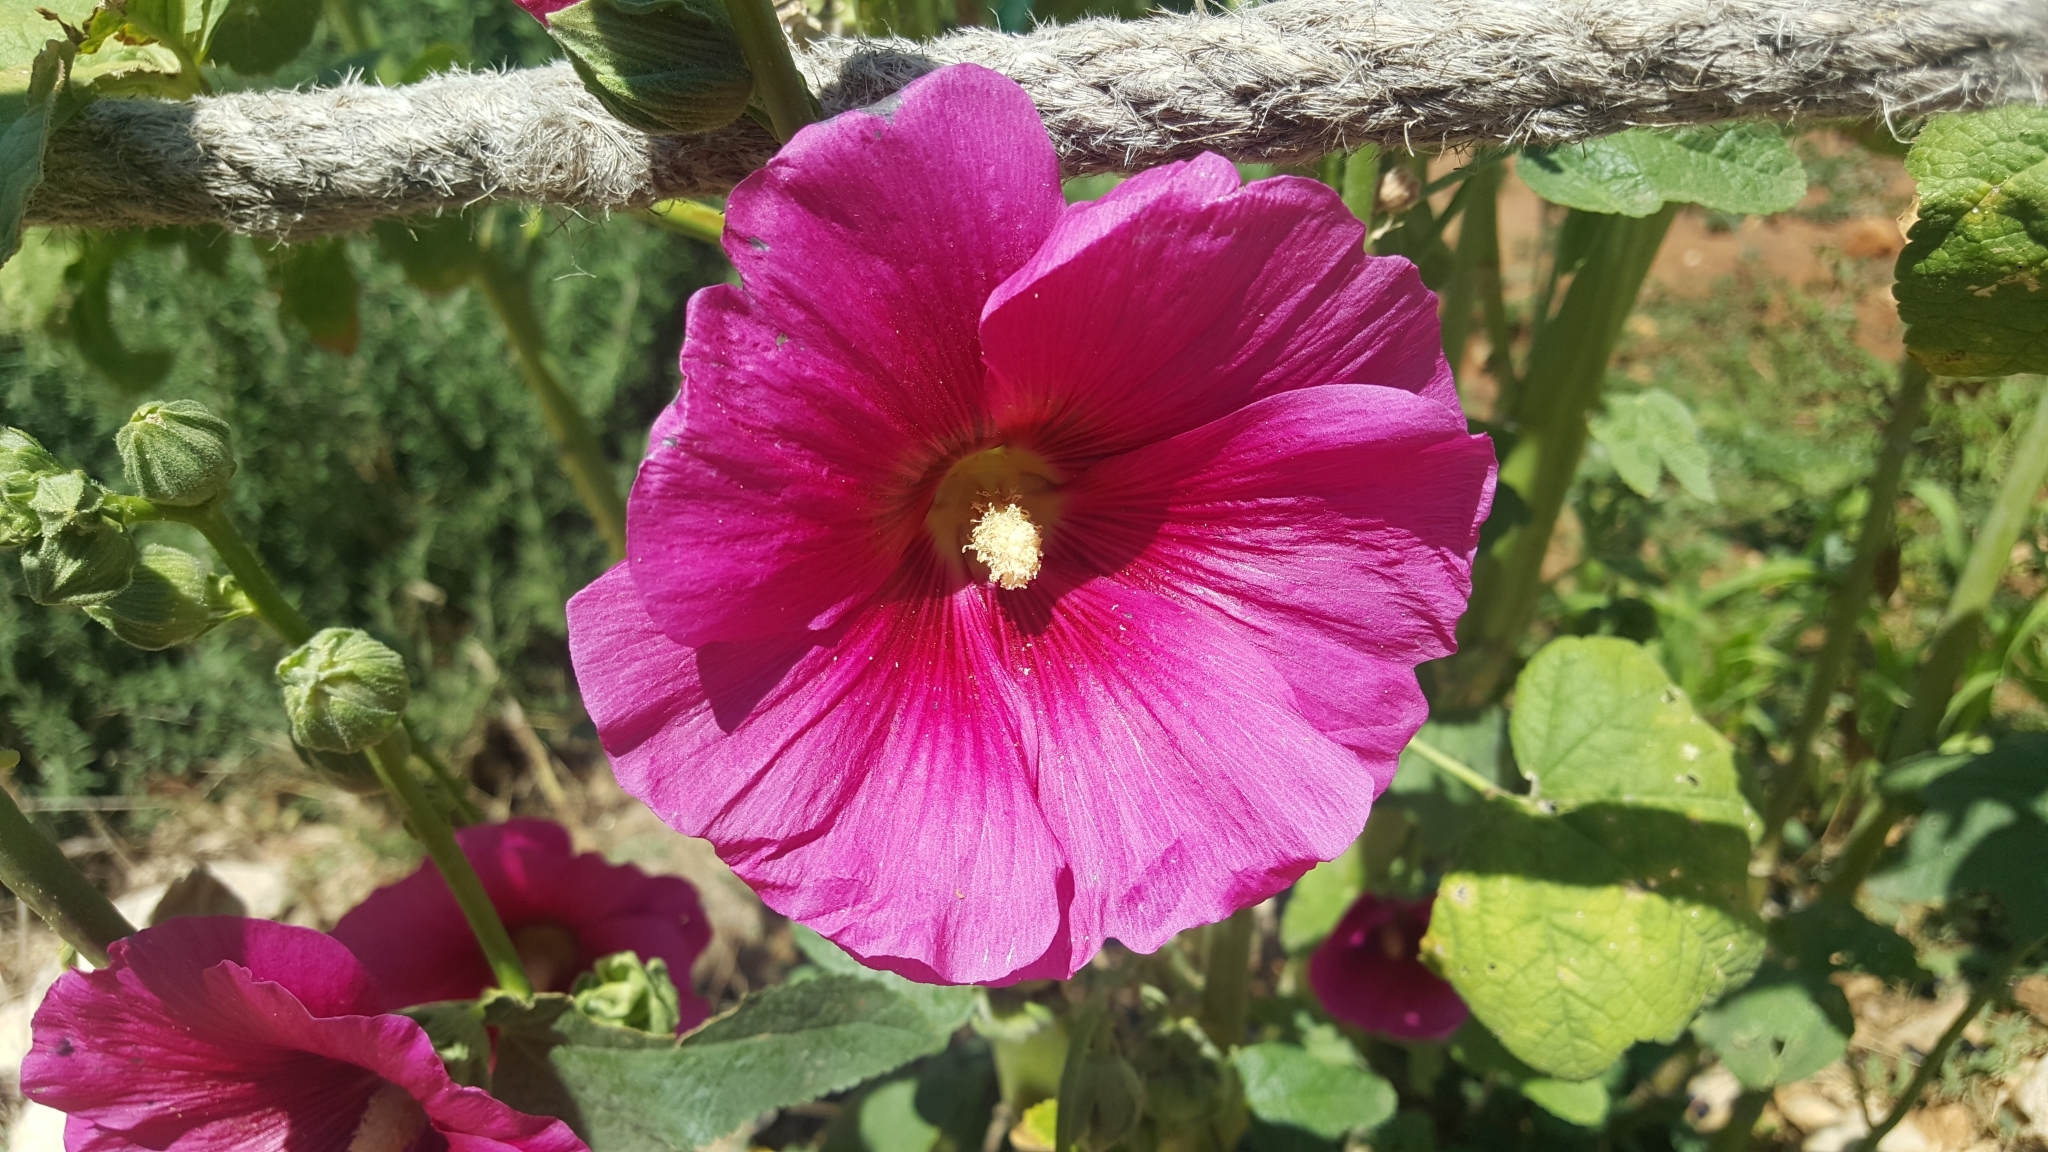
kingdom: Plantae
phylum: Tracheophyta
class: Magnoliopsida
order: Malvales
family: Malvaceae
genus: Alcea
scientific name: Alcea rosea
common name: Hollyhock
